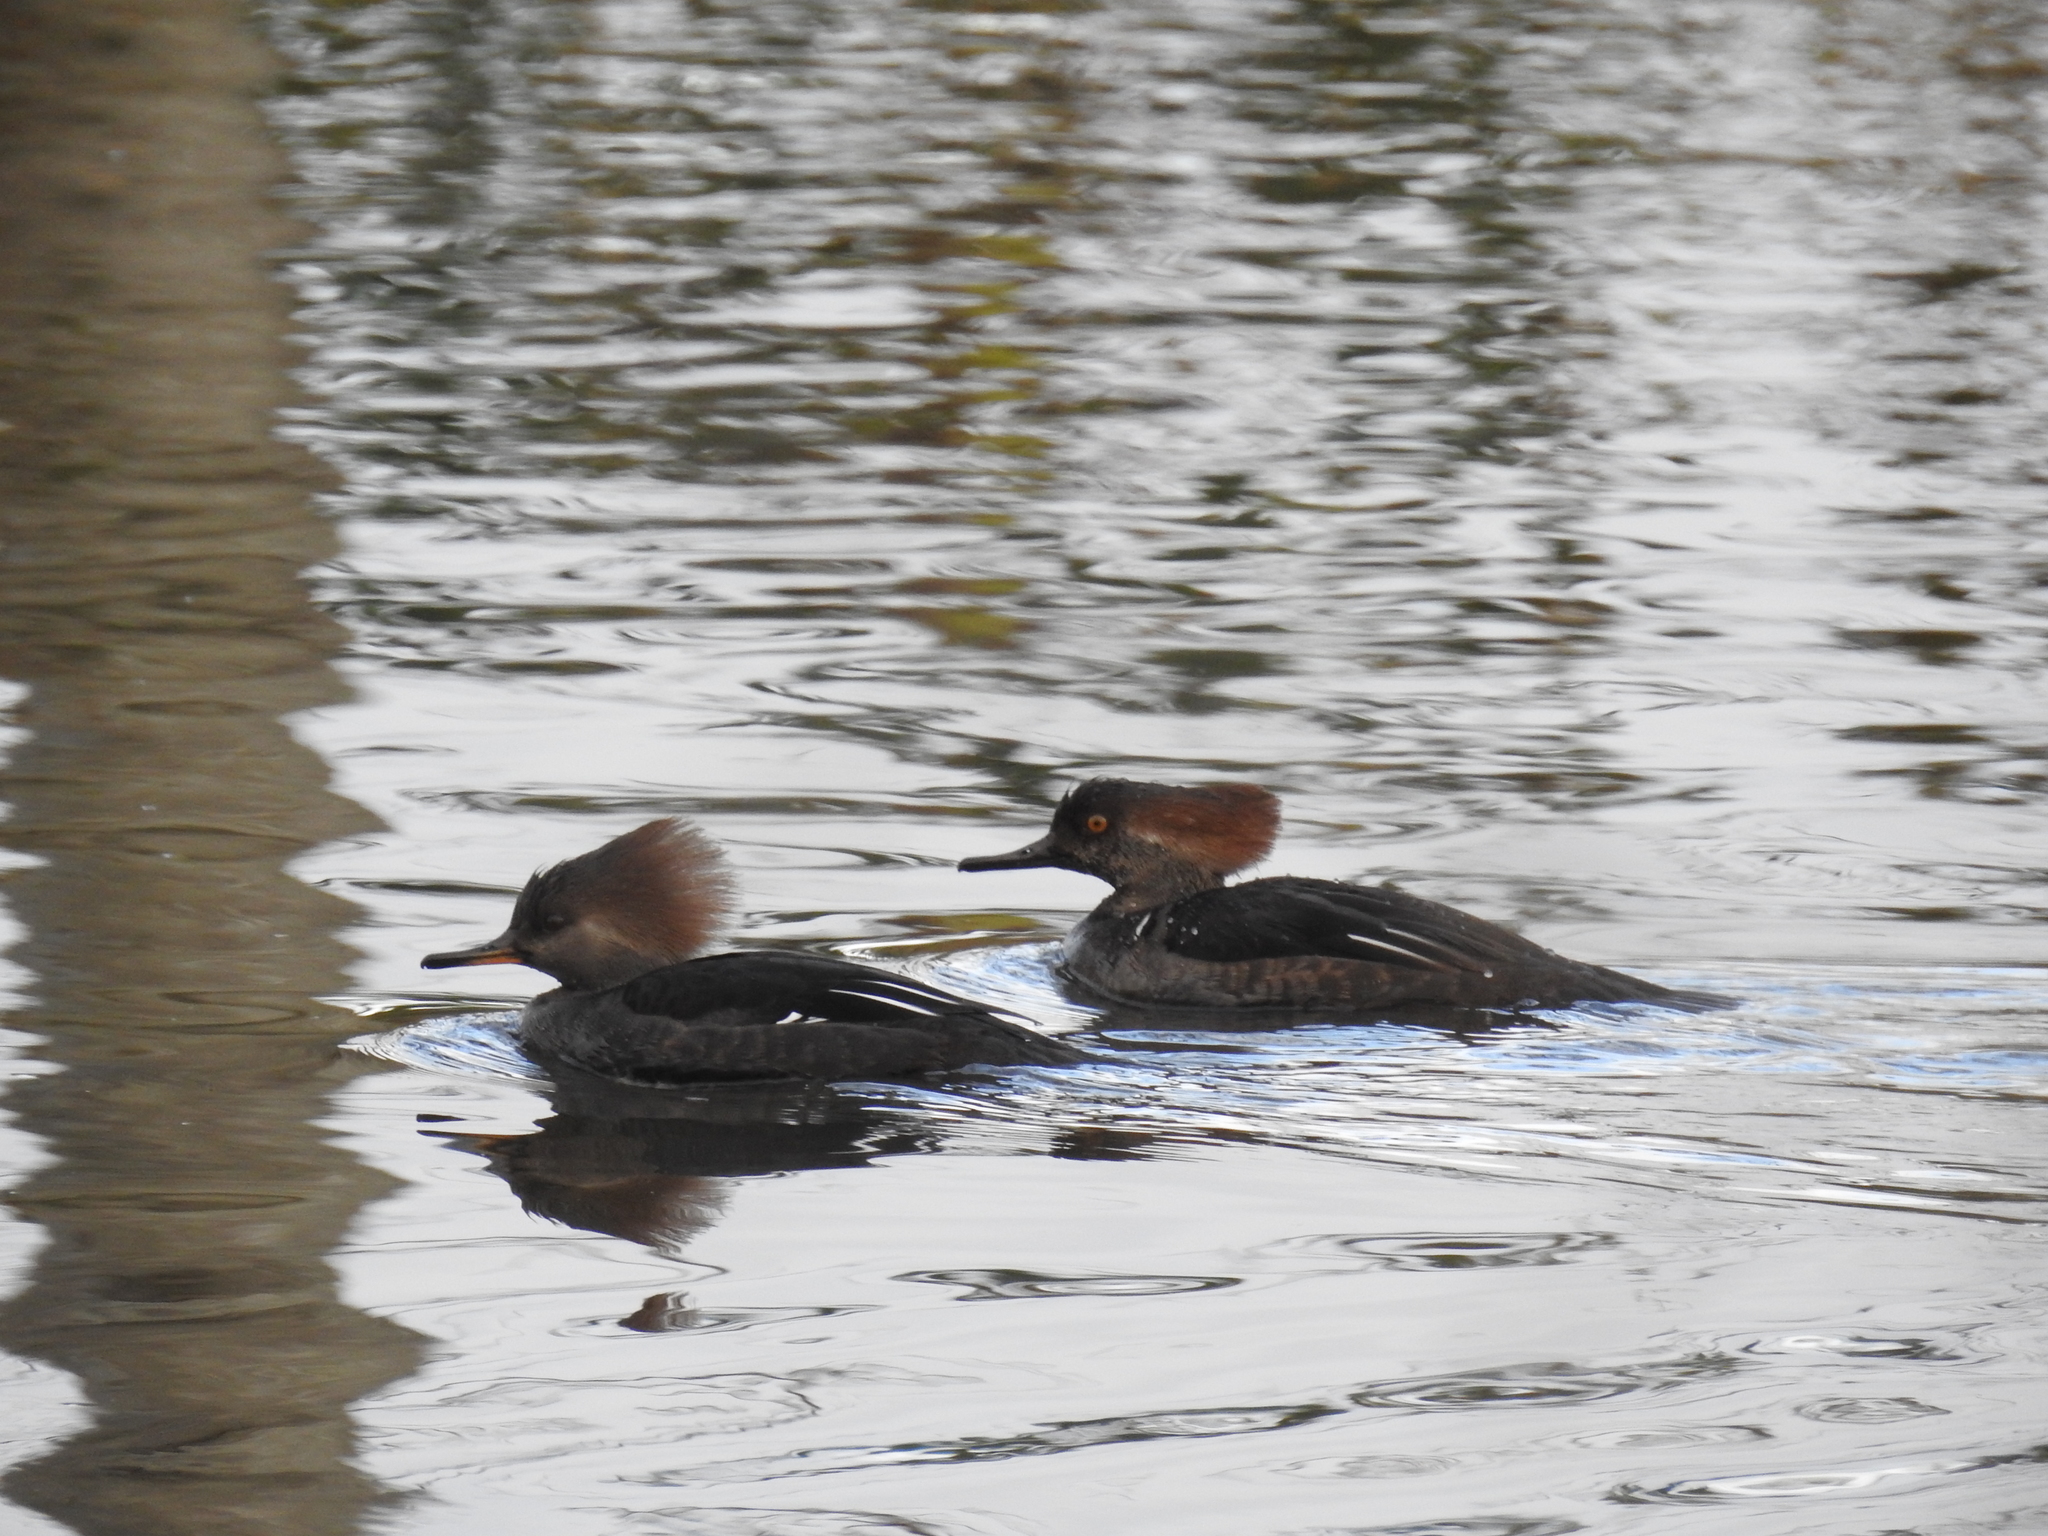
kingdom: Animalia
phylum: Chordata
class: Aves
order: Anseriformes
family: Anatidae
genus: Lophodytes
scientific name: Lophodytes cucullatus
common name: Hooded merganser
